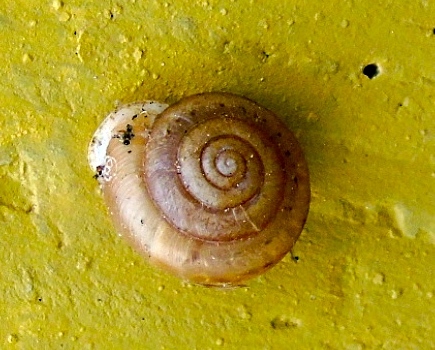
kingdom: Animalia
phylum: Mollusca
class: Gastropoda
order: Stylommatophora
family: Polygyridae
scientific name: Polygyridae
